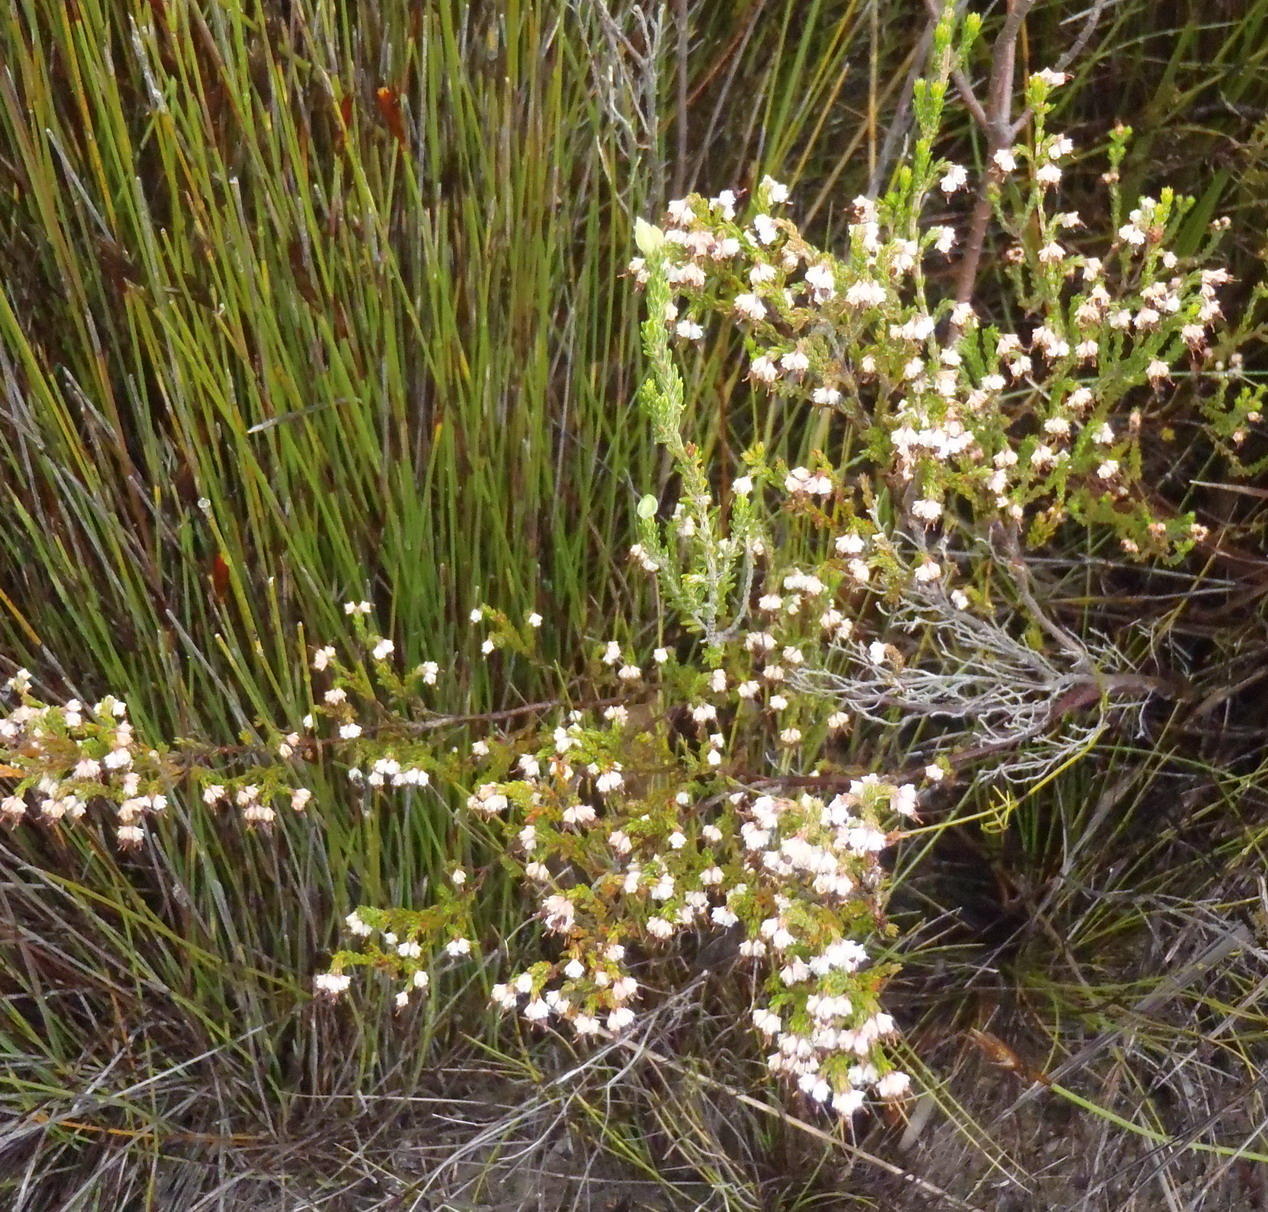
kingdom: Plantae
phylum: Tracheophyta
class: Magnoliopsida
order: Ericales
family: Ericaceae
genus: Erica
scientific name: Erica triceps
